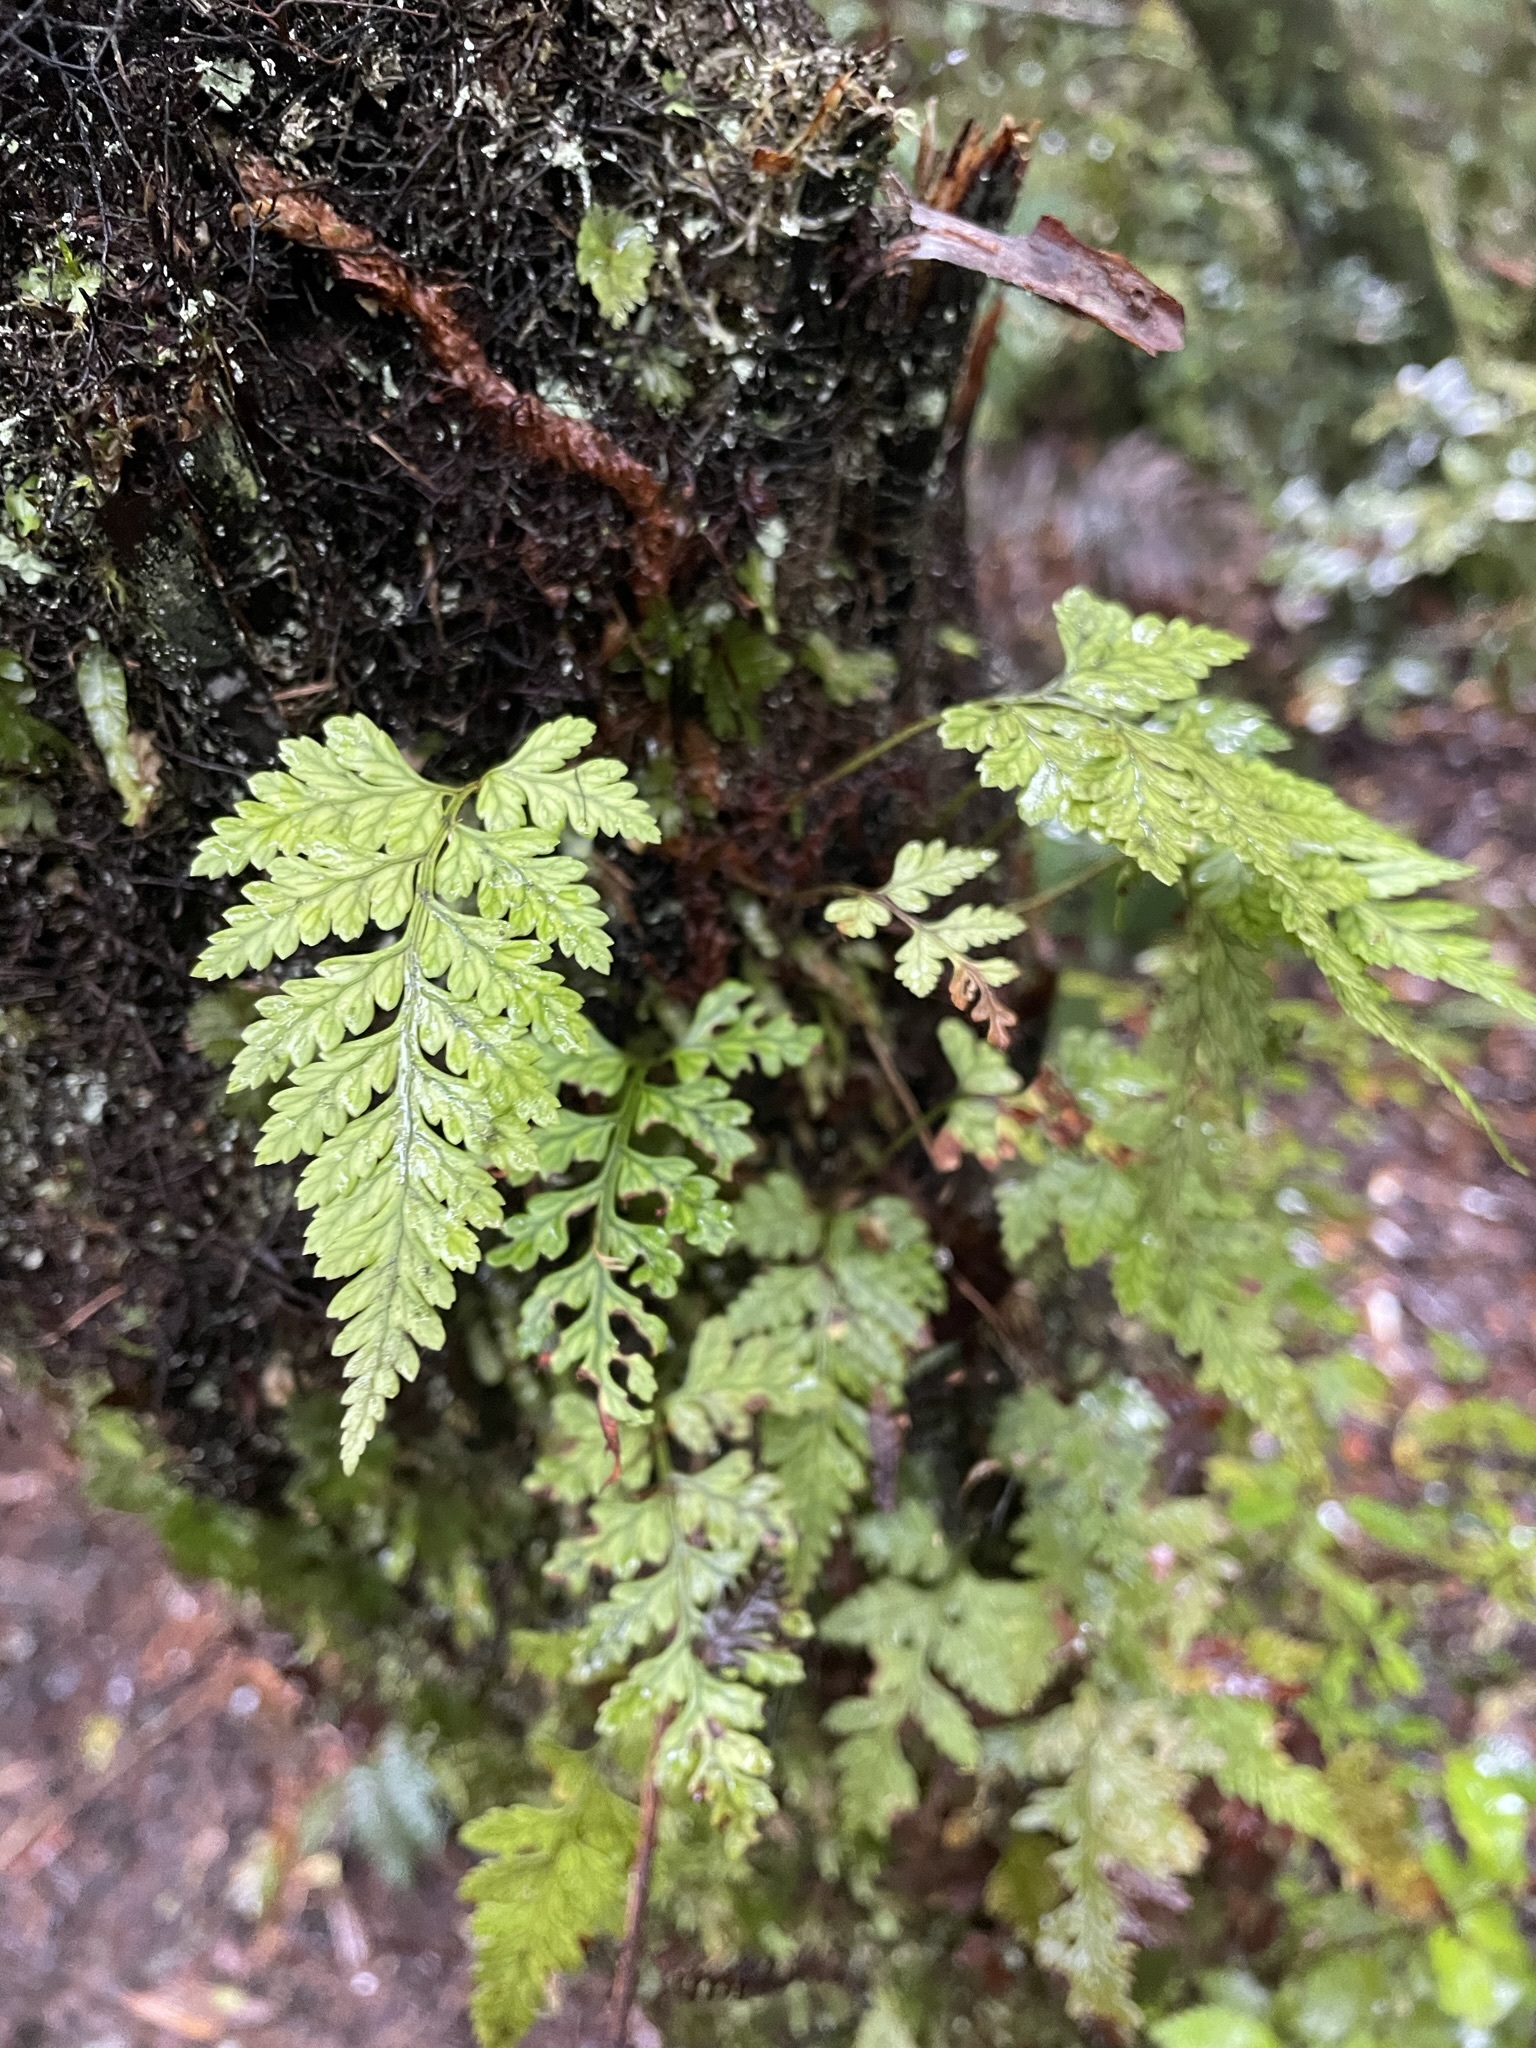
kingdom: Plantae
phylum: Tracheophyta
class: Polypodiopsida
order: Polypodiales
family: Dryopteridaceae
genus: Rumohra
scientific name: Rumohra adiantiformis
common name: Leather fern
